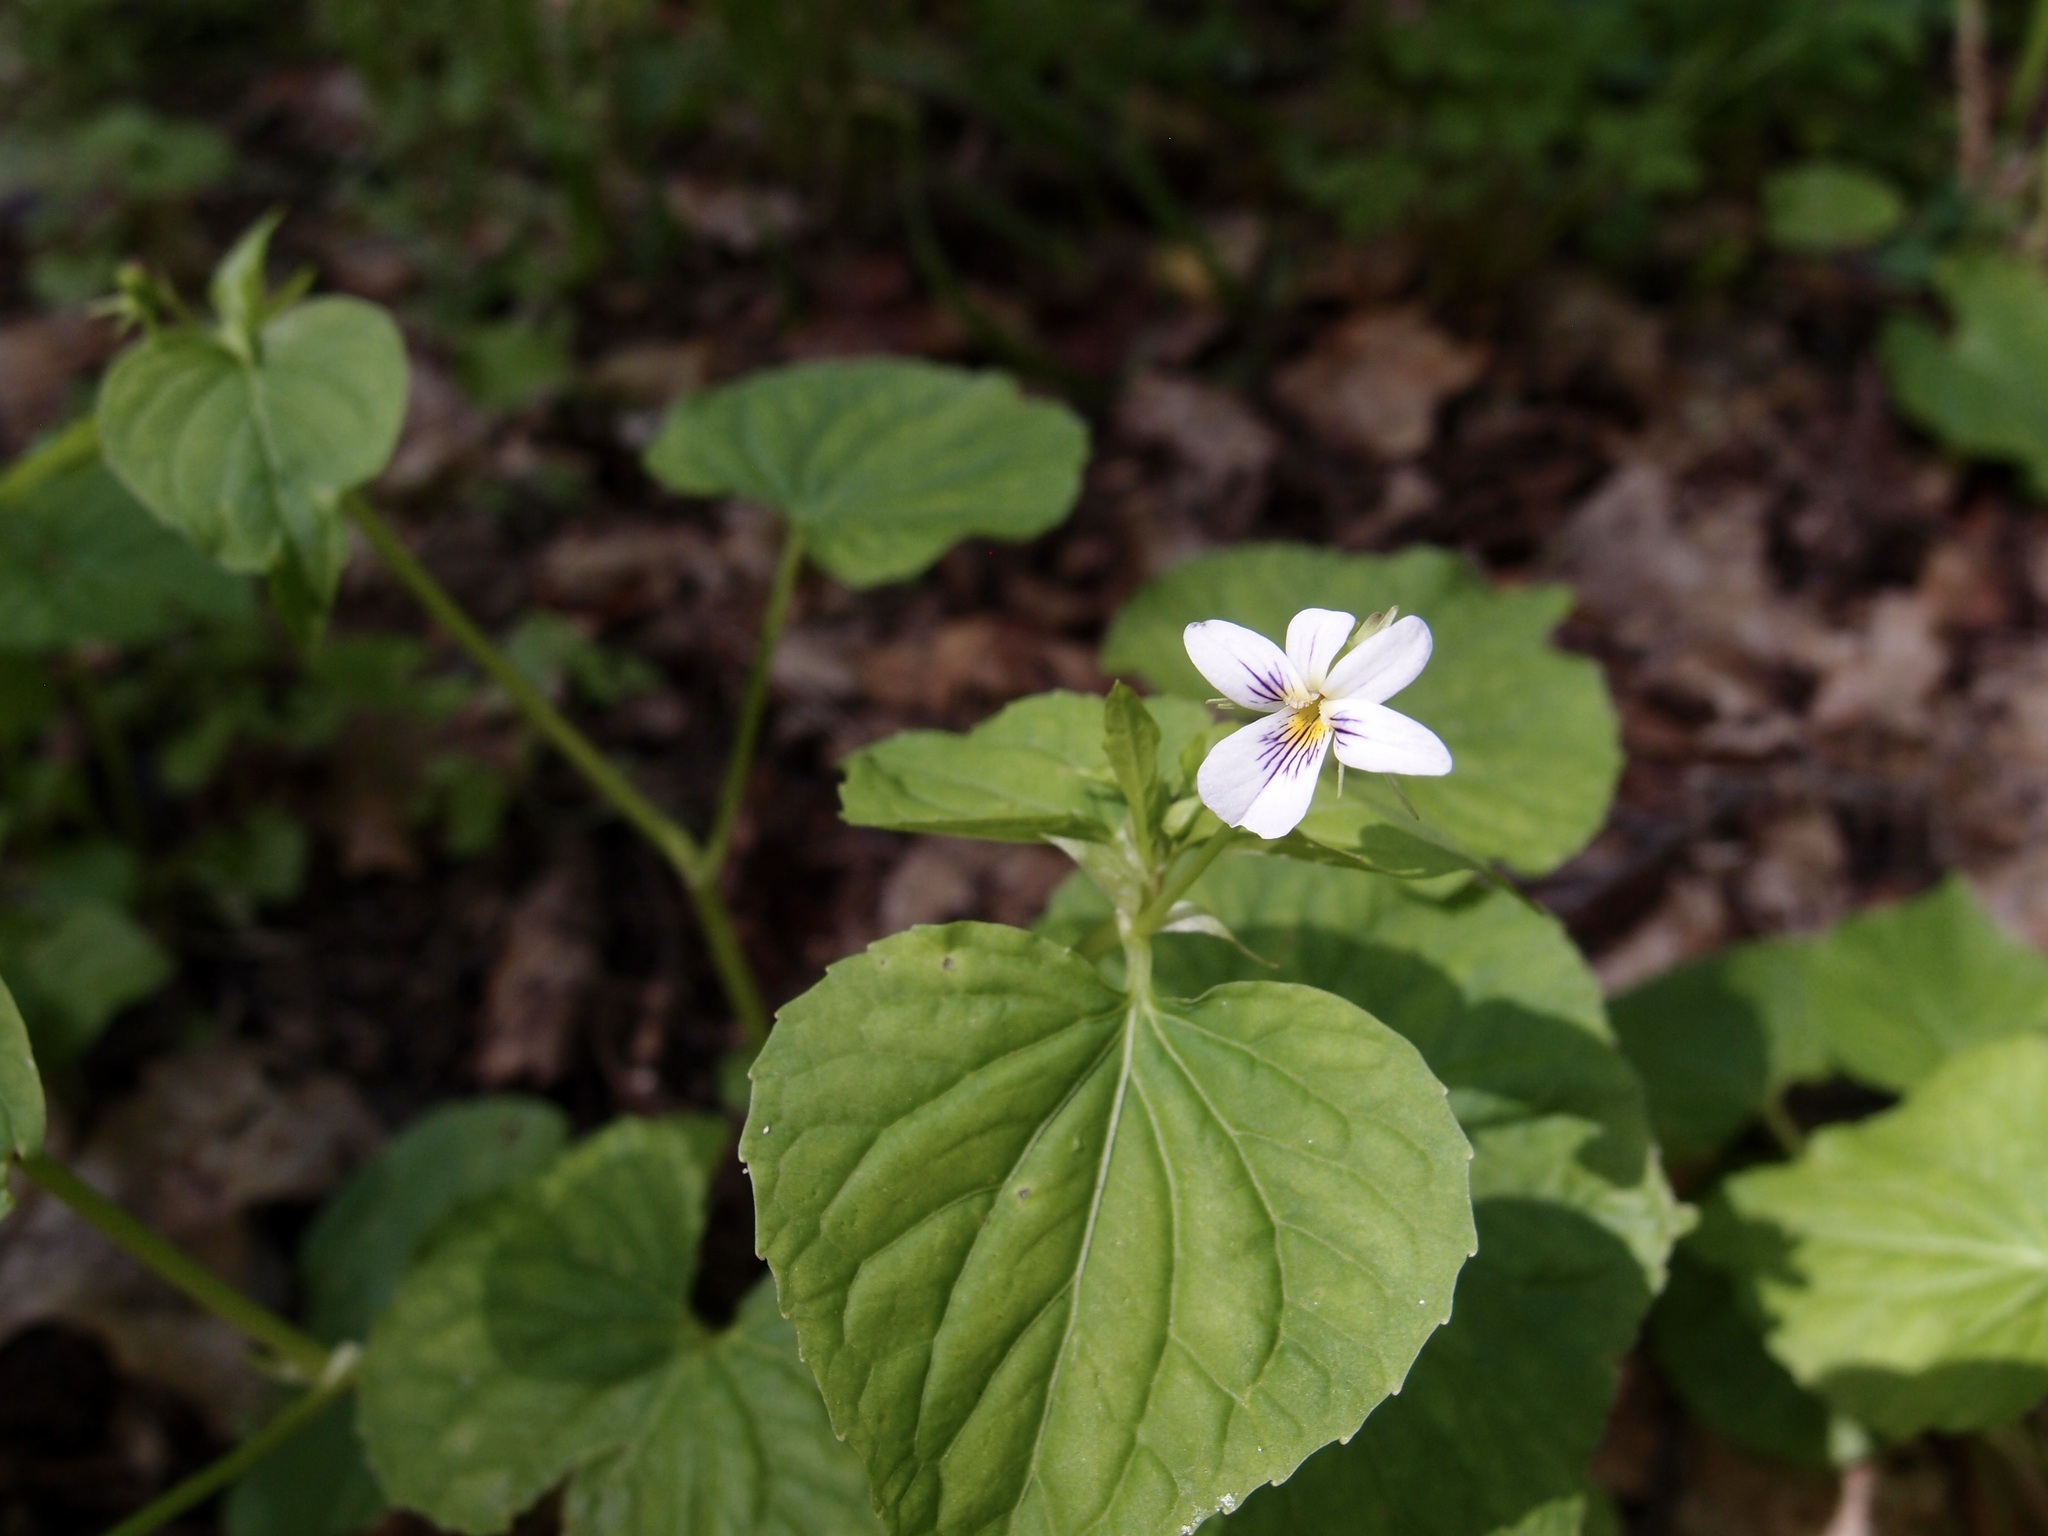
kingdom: Plantae
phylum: Tracheophyta
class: Magnoliopsida
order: Malpighiales
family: Violaceae
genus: Viola
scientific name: Viola canadensis
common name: Canada violet
